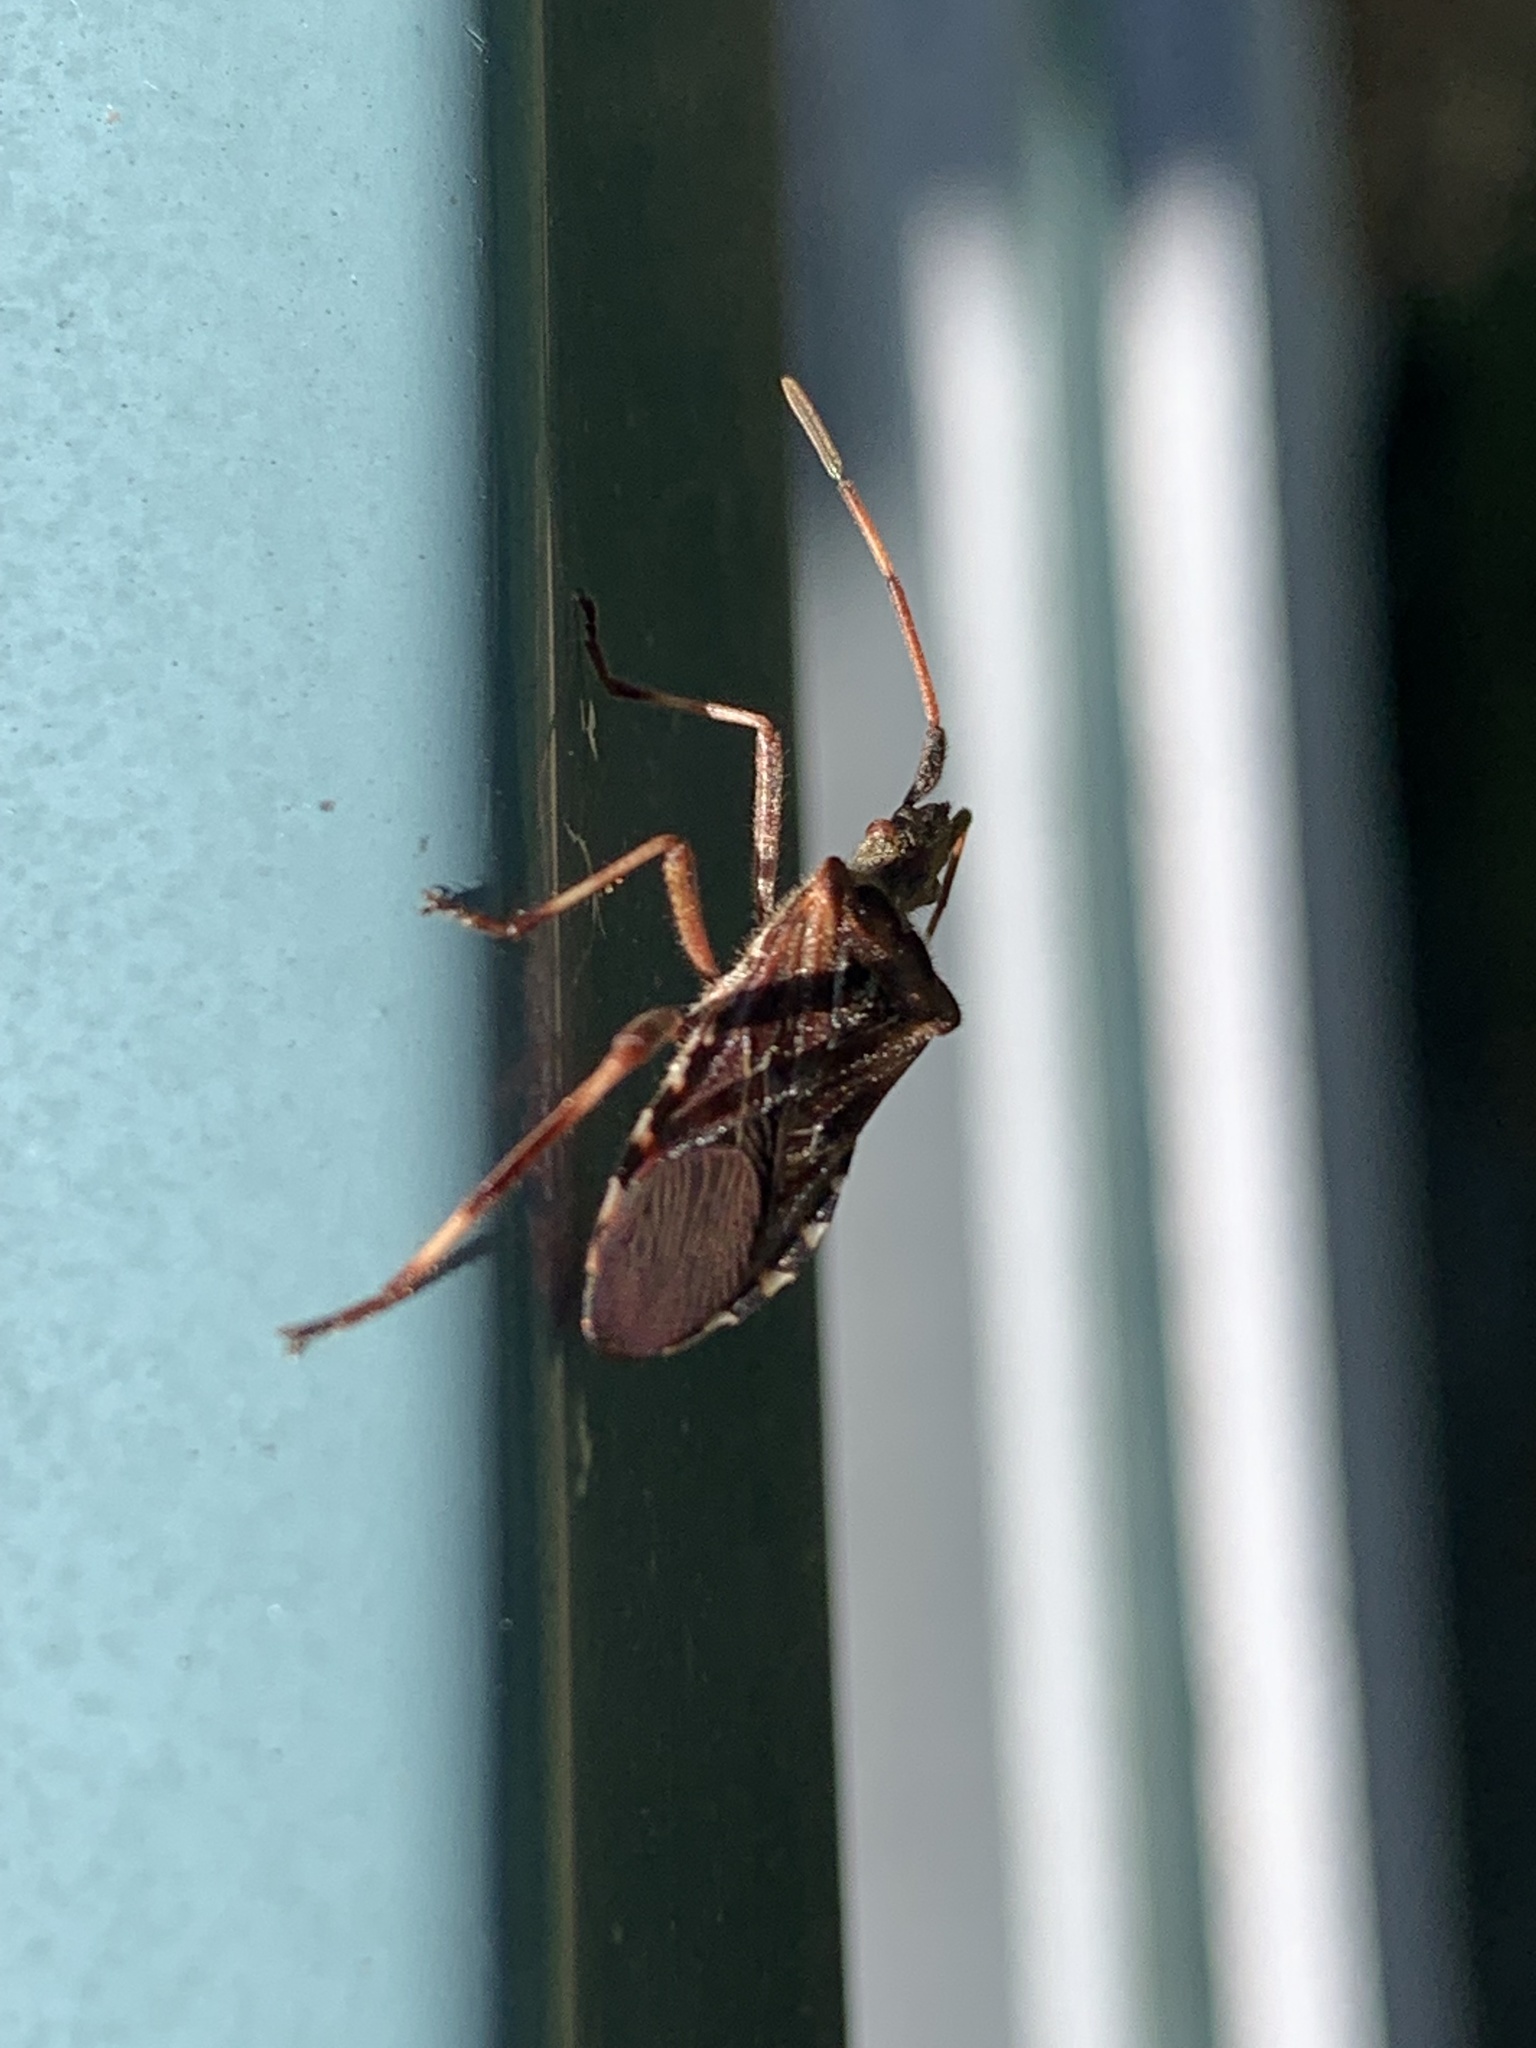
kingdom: Animalia
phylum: Arthropoda
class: Insecta
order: Hemiptera
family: Coreidae
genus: Leptoglossus
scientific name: Leptoglossus occidentalis
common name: Western conifer-seed bug
